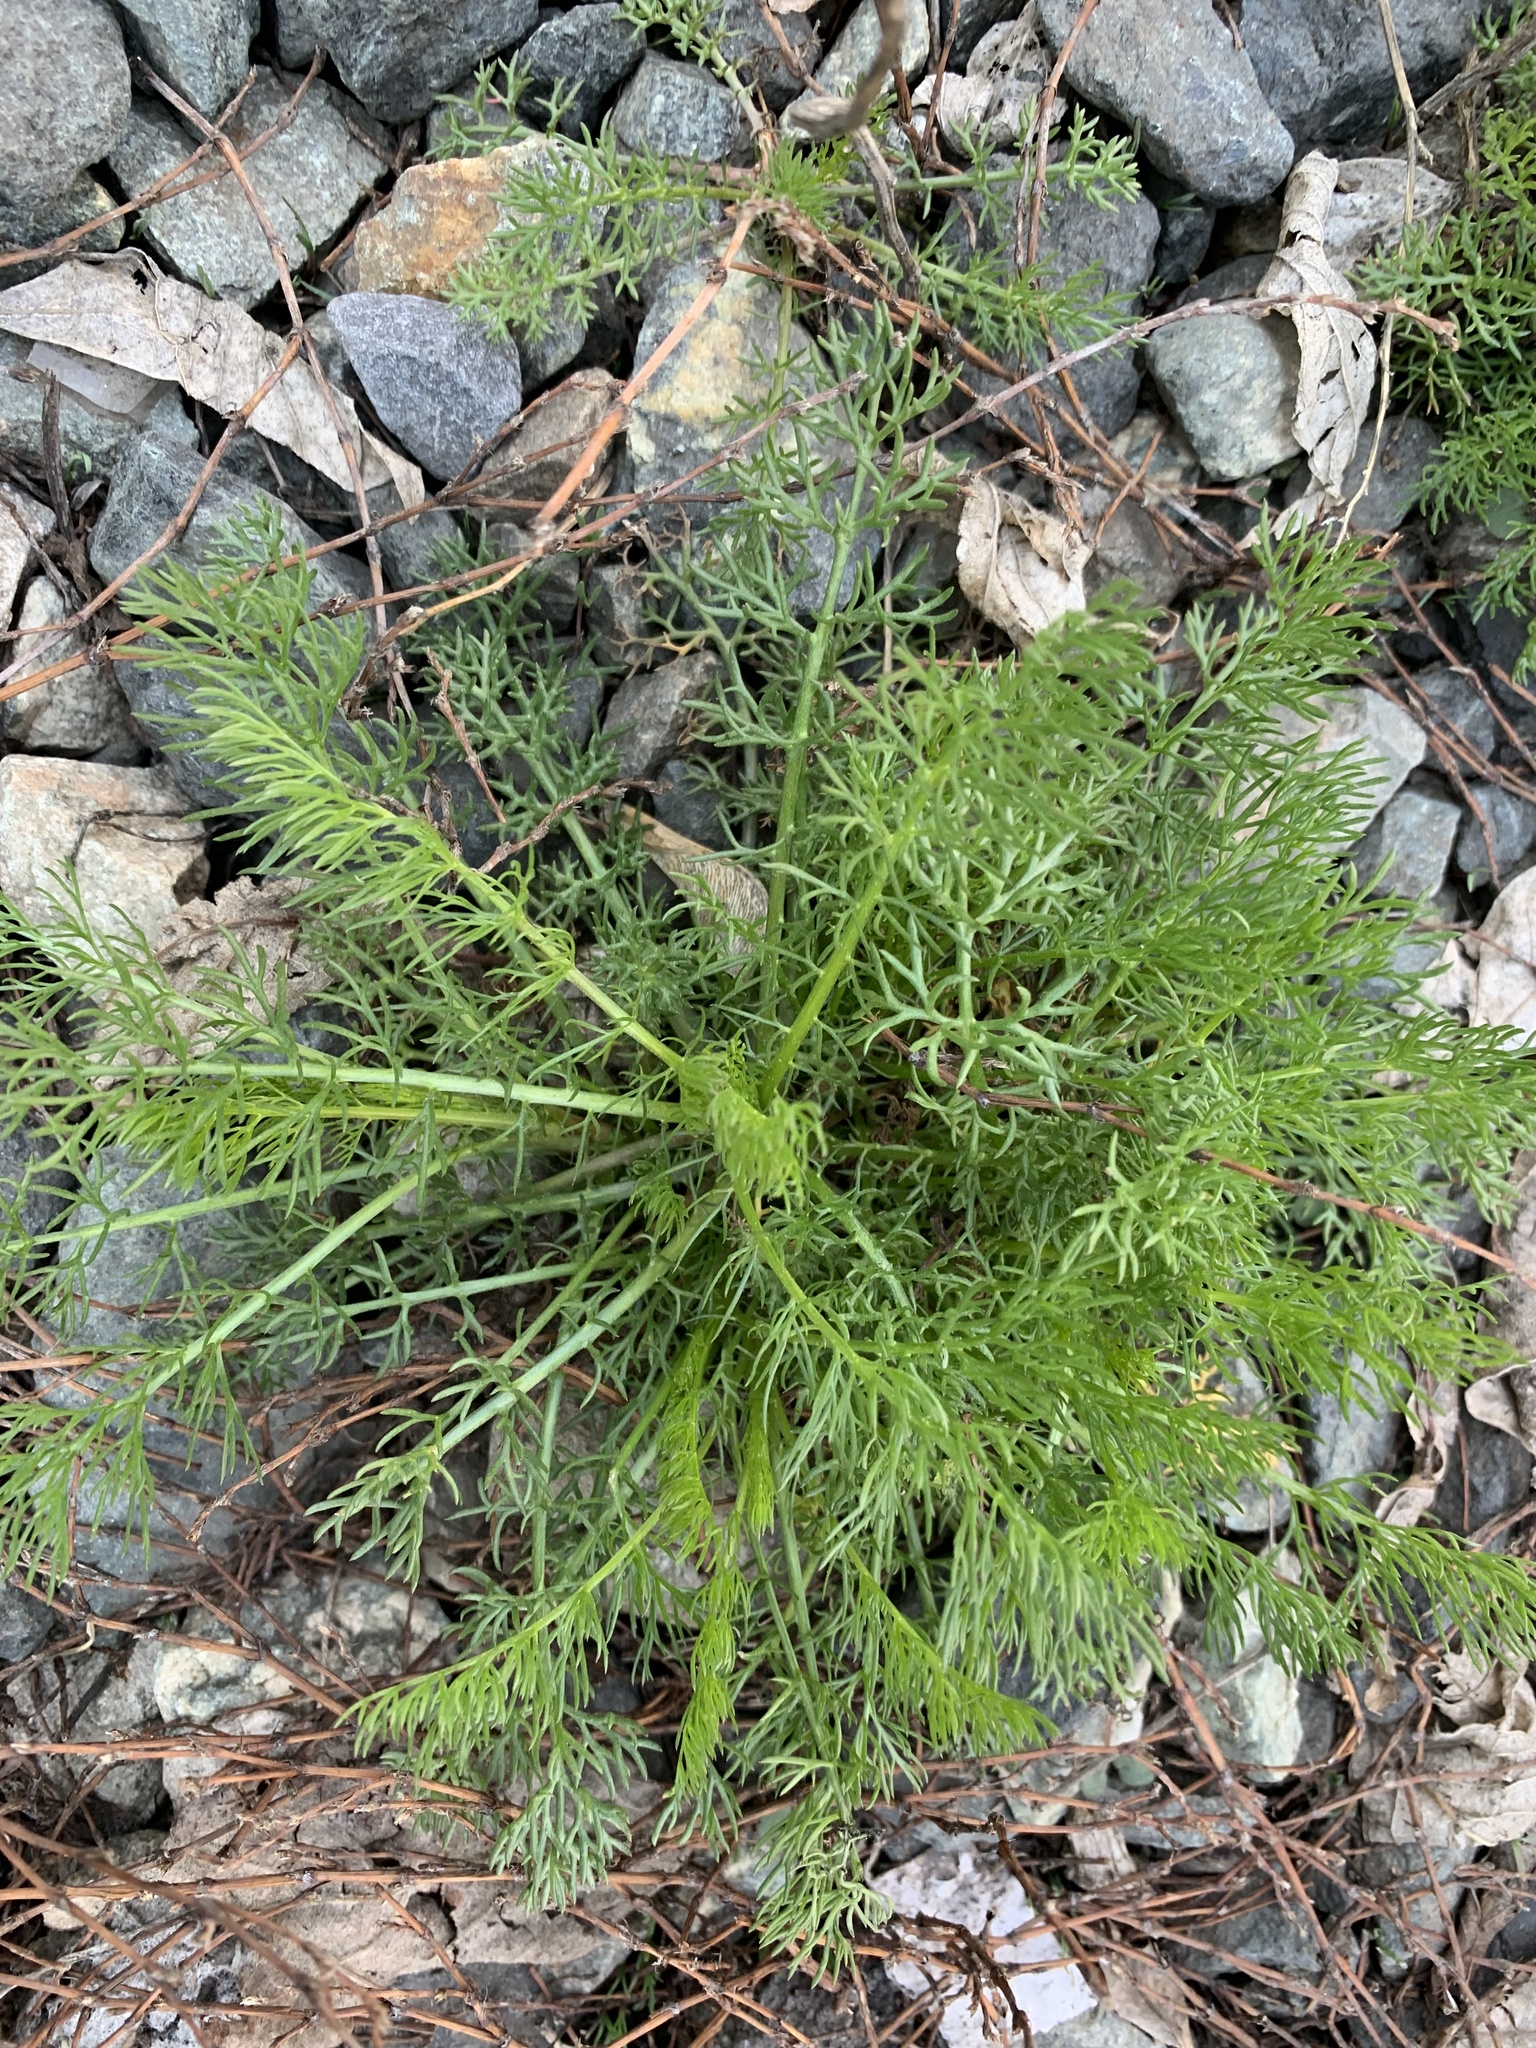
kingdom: Plantae
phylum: Tracheophyta
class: Magnoliopsida
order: Asterales
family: Asteraceae
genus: Tripleurospermum
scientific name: Tripleurospermum inodorum
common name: Scentless mayweed
